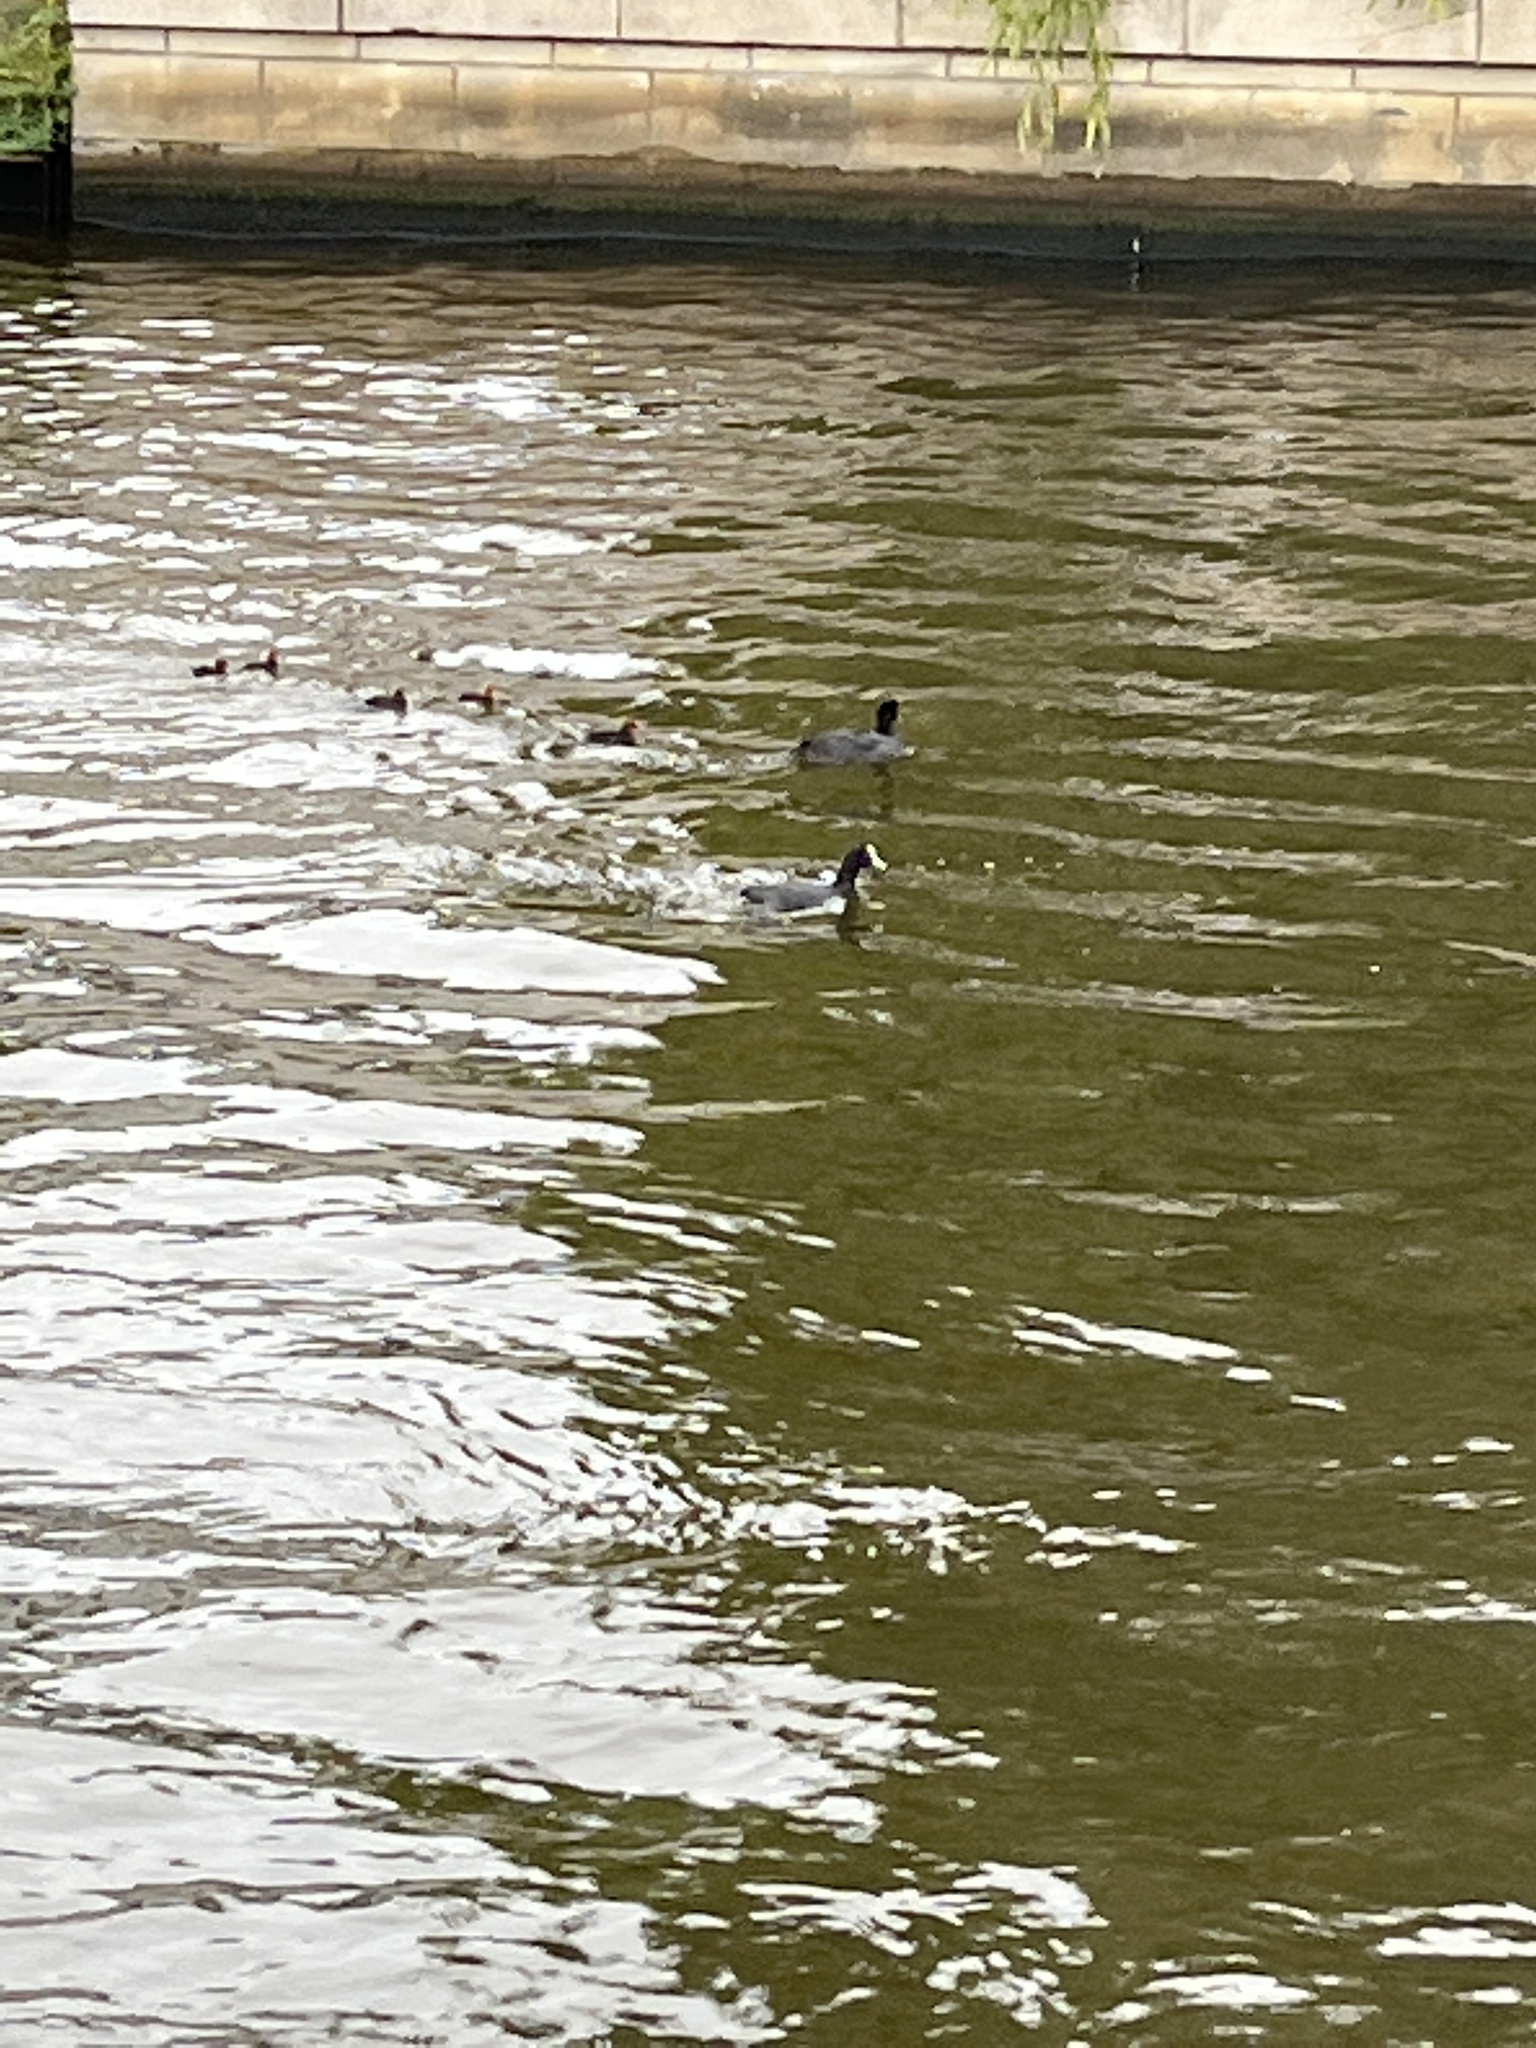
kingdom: Animalia
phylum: Chordata
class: Aves
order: Gruiformes
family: Rallidae
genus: Fulica
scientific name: Fulica atra
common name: Eurasian coot
